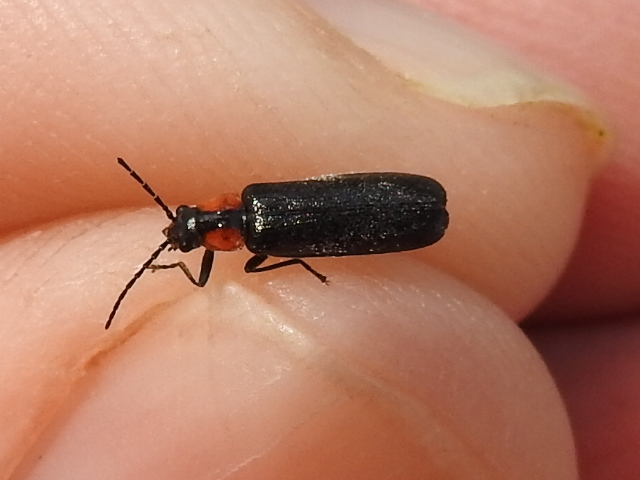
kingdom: Animalia
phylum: Arthropoda
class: Insecta
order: Coleoptera
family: Cantharidae
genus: Rhagonycha
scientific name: Rhagonycha lineola
